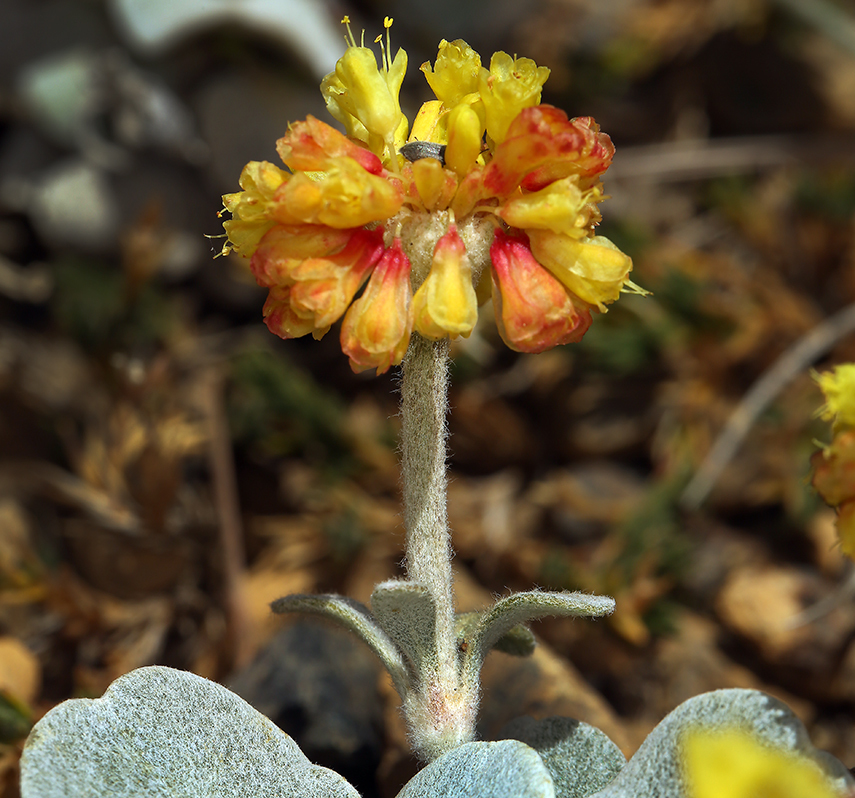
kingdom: Plantae
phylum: Tracheophyta
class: Magnoliopsida
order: Caryophyllales
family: Polygonaceae
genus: Eriogonum
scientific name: Eriogonum alpinum
